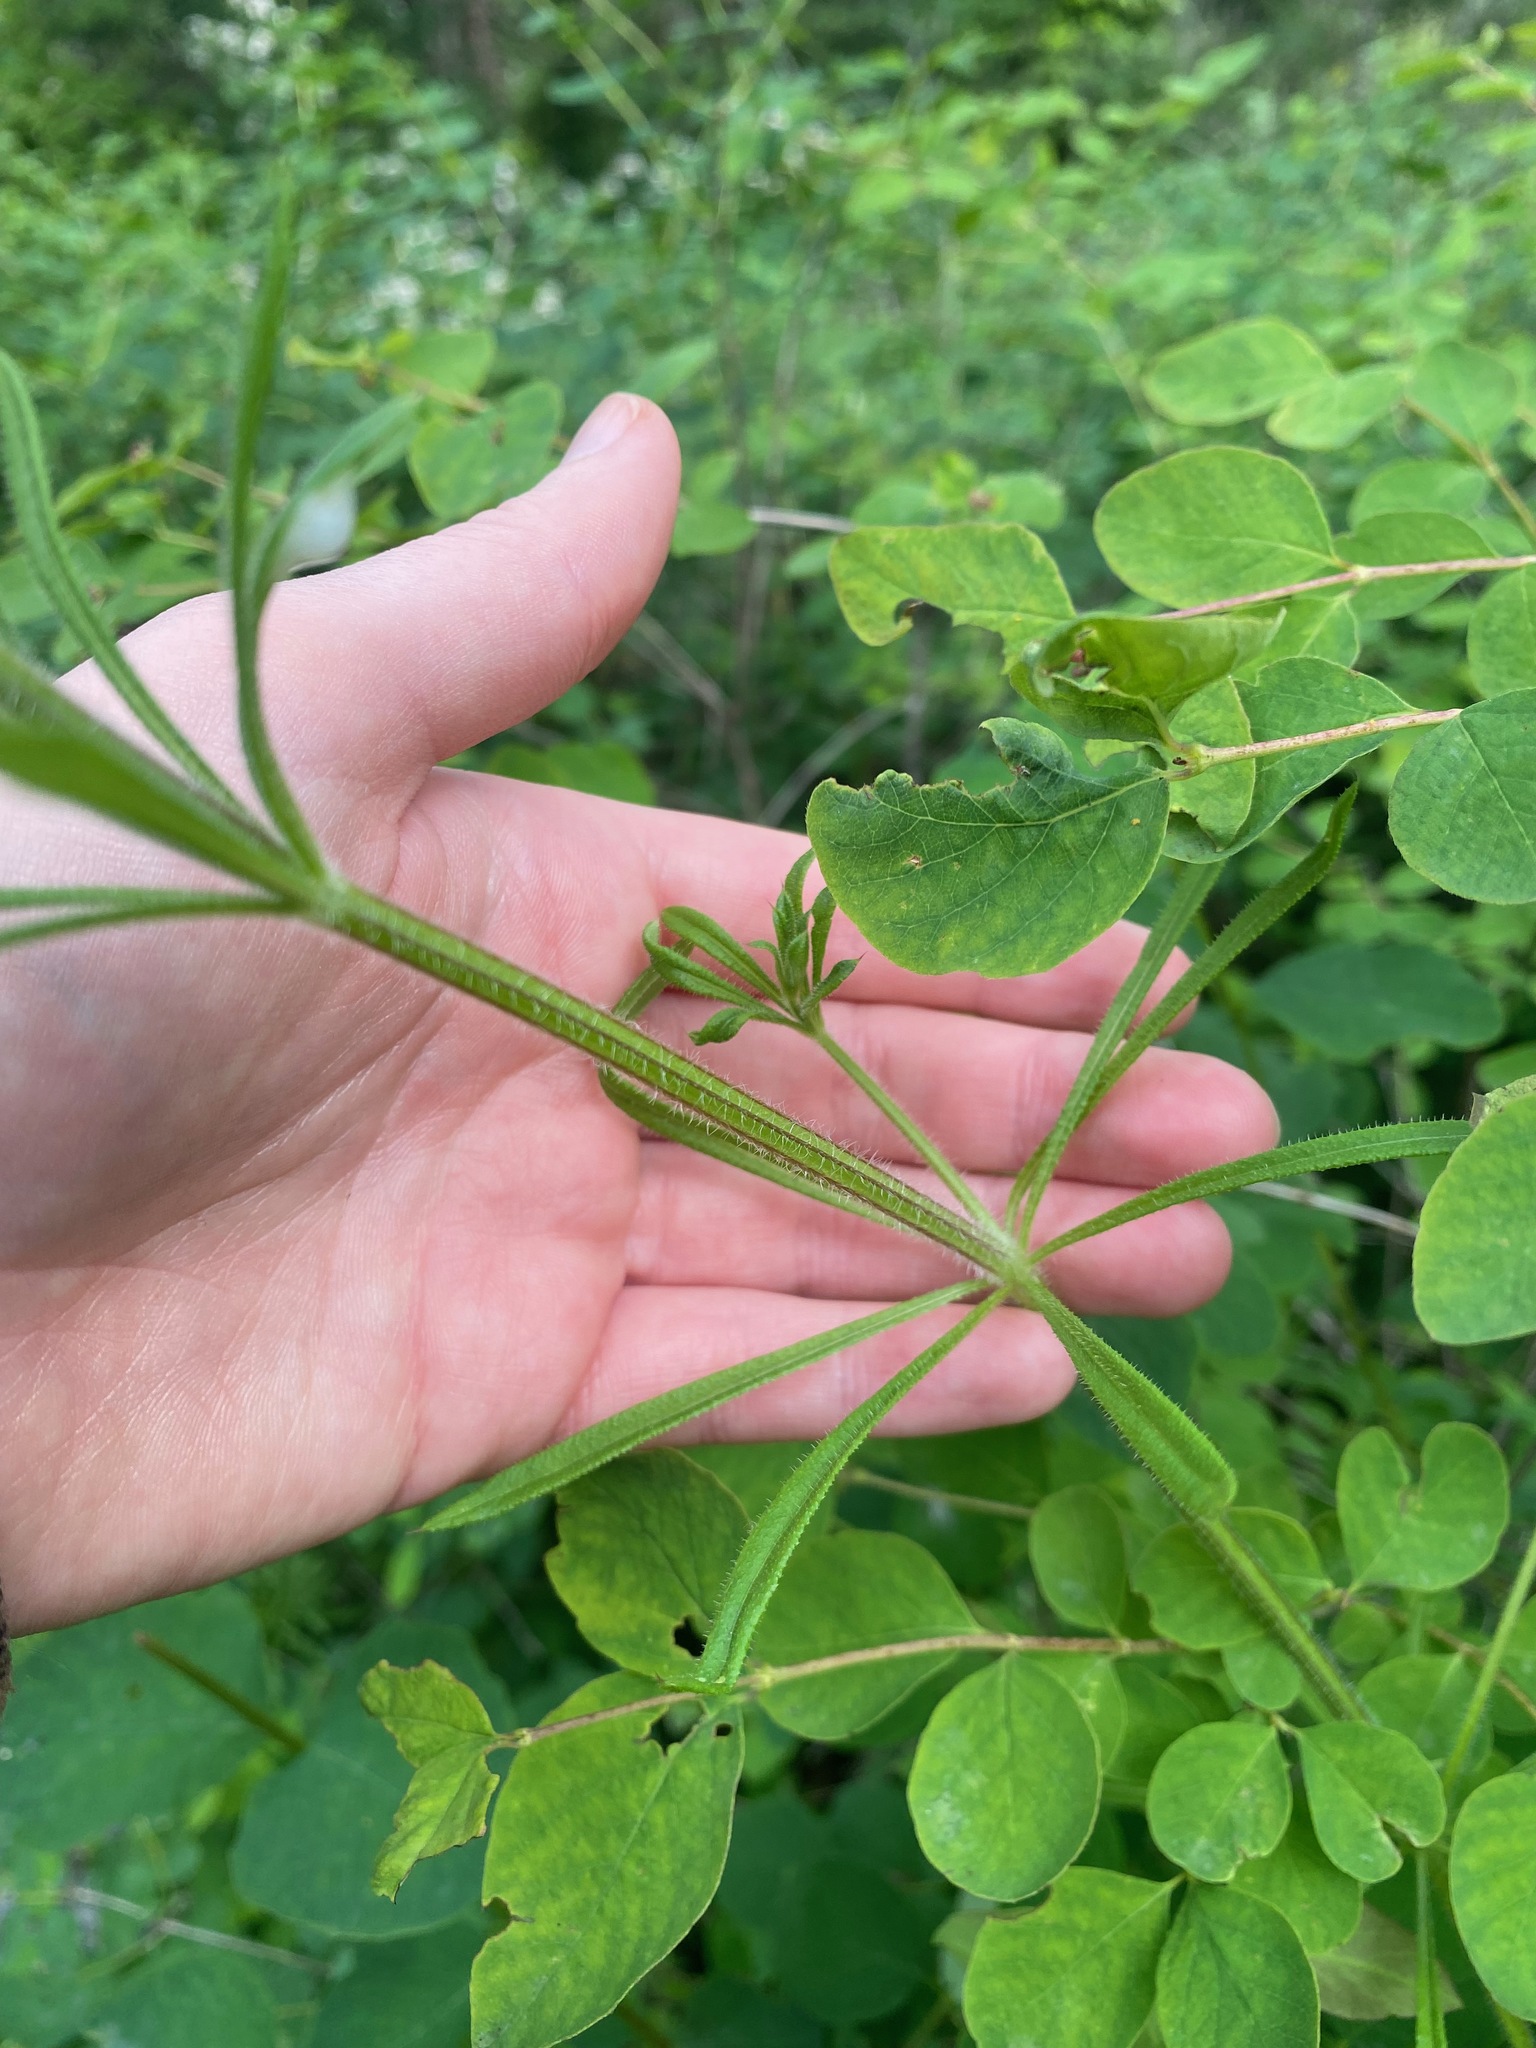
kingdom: Plantae
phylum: Tracheophyta
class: Magnoliopsida
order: Gentianales
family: Rubiaceae
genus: Galium
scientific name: Galium aparine
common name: Cleavers
